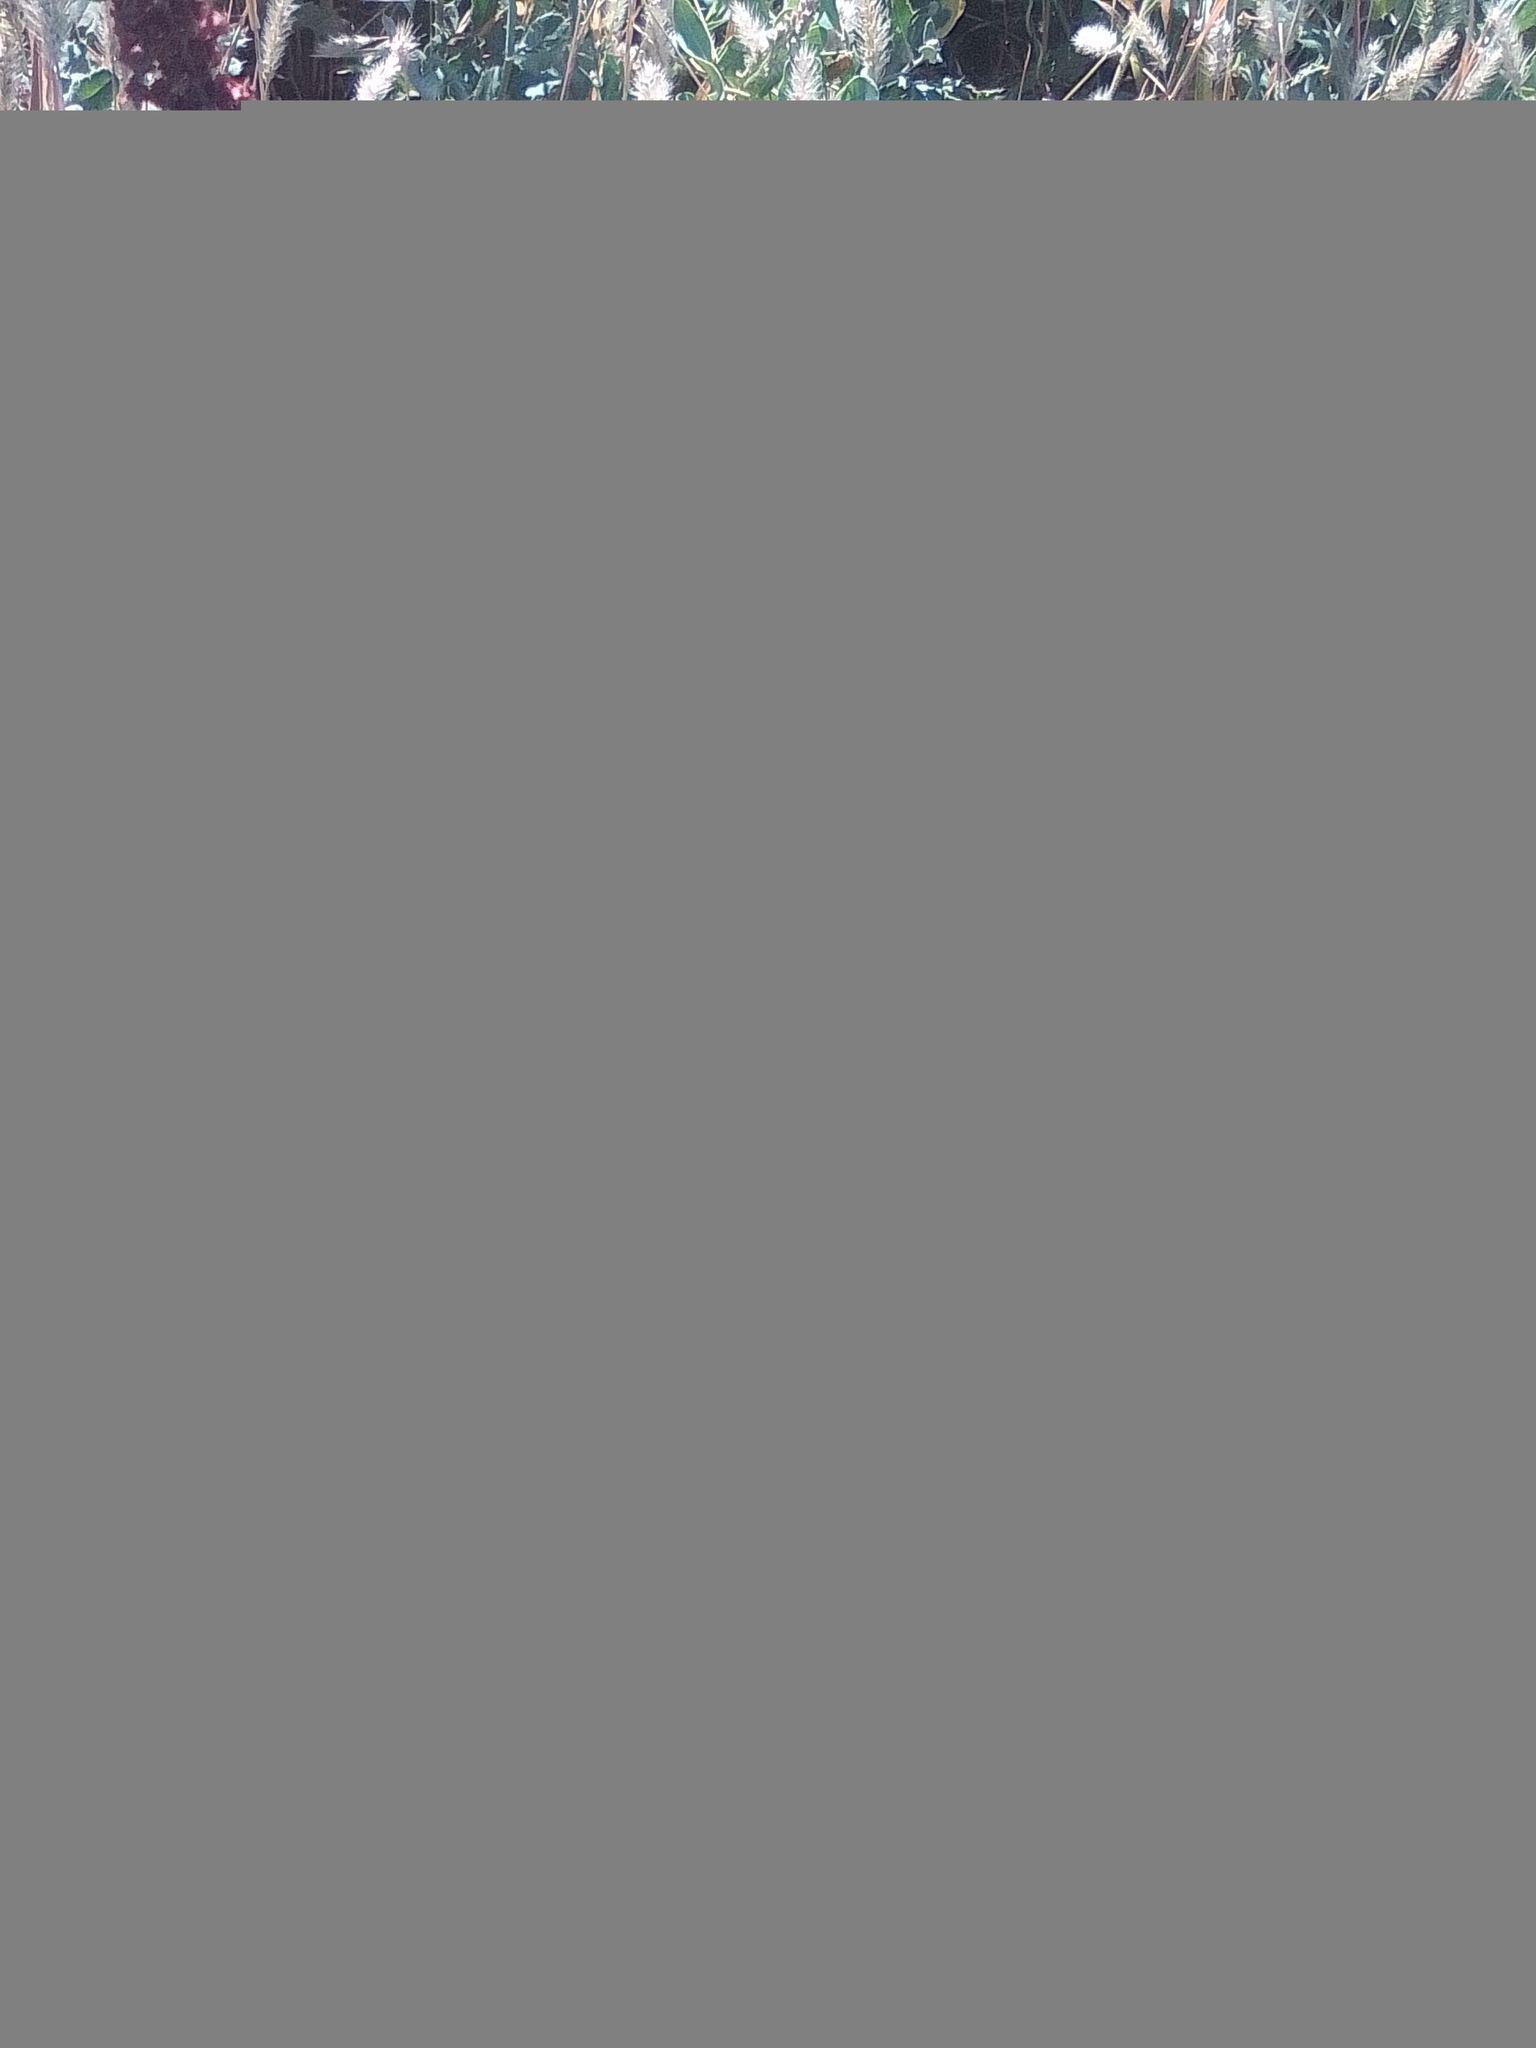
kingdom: Plantae
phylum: Tracheophyta
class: Magnoliopsida
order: Caryophyllales
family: Polygonaceae
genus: Rumex
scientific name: Rumex crispus
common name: Curled dock
